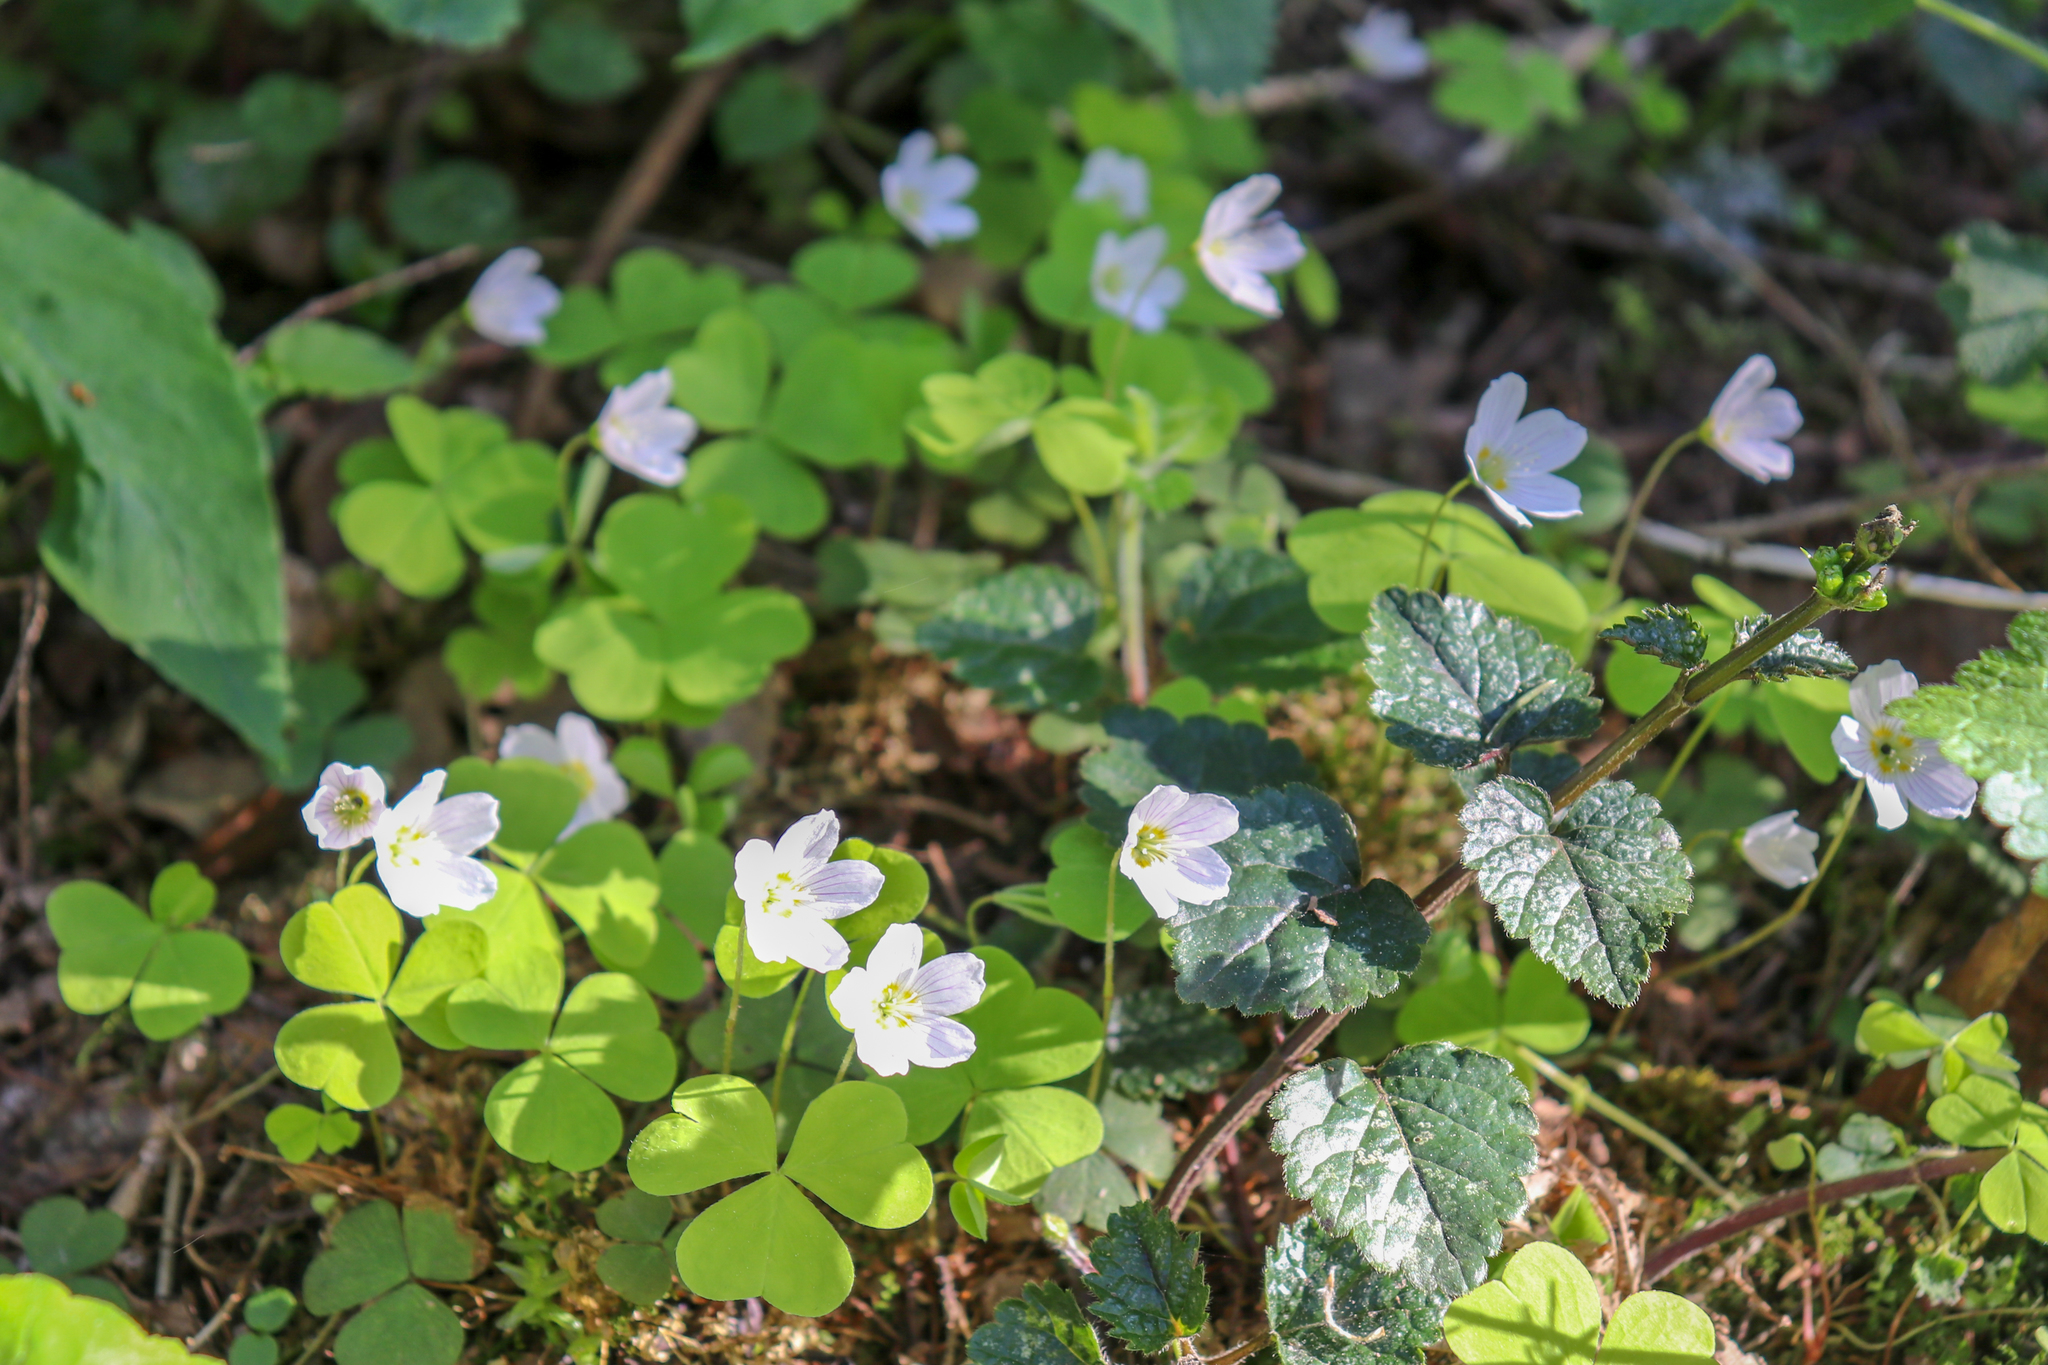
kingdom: Plantae
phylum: Tracheophyta
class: Magnoliopsida
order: Oxalidales
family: Oxalidaceae
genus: Oxalis
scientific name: Oxalis acetosella
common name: Wood-sorrel
